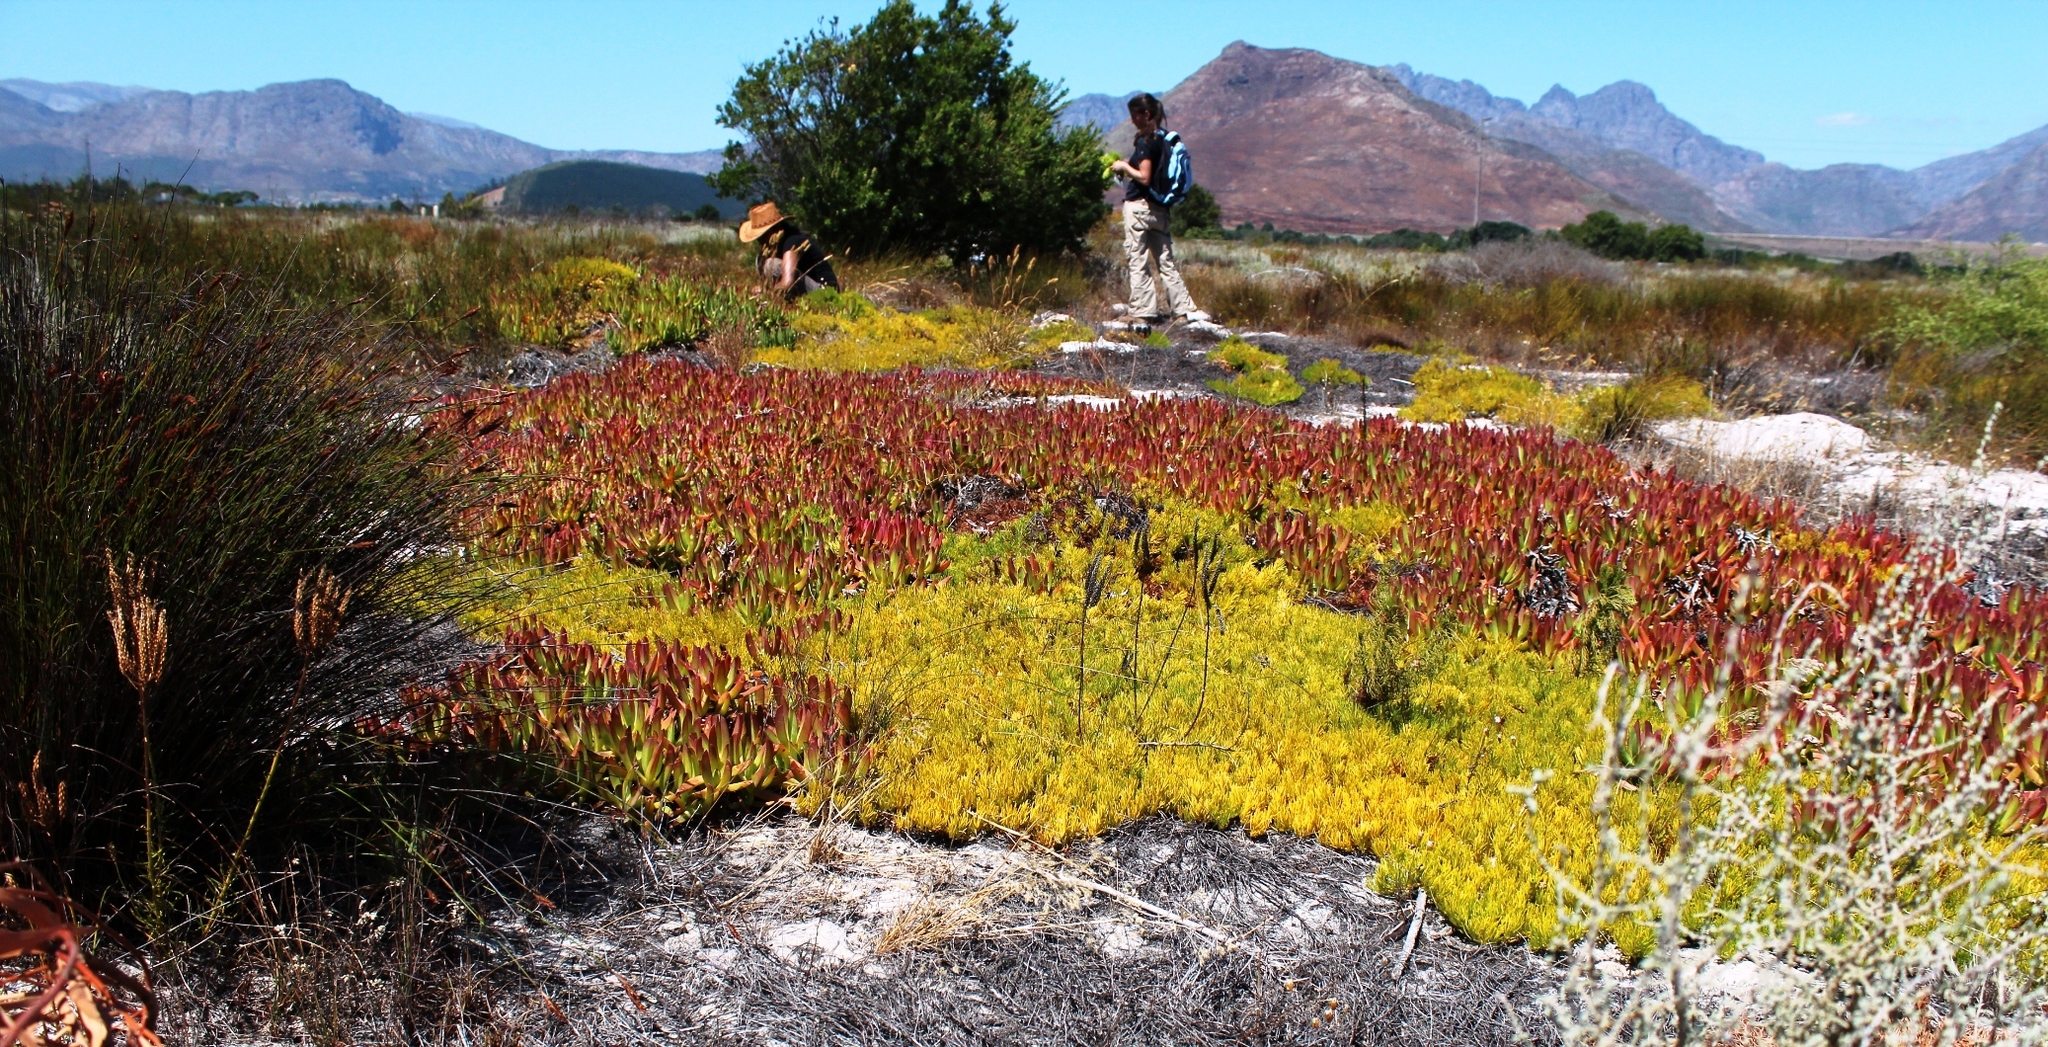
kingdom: Plantae
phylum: Tracheophyta
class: Magnoliopsida
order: Proteales
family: Proteaceae
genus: Diastella
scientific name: Diastella buekii
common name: Franschhoek silkypuff
